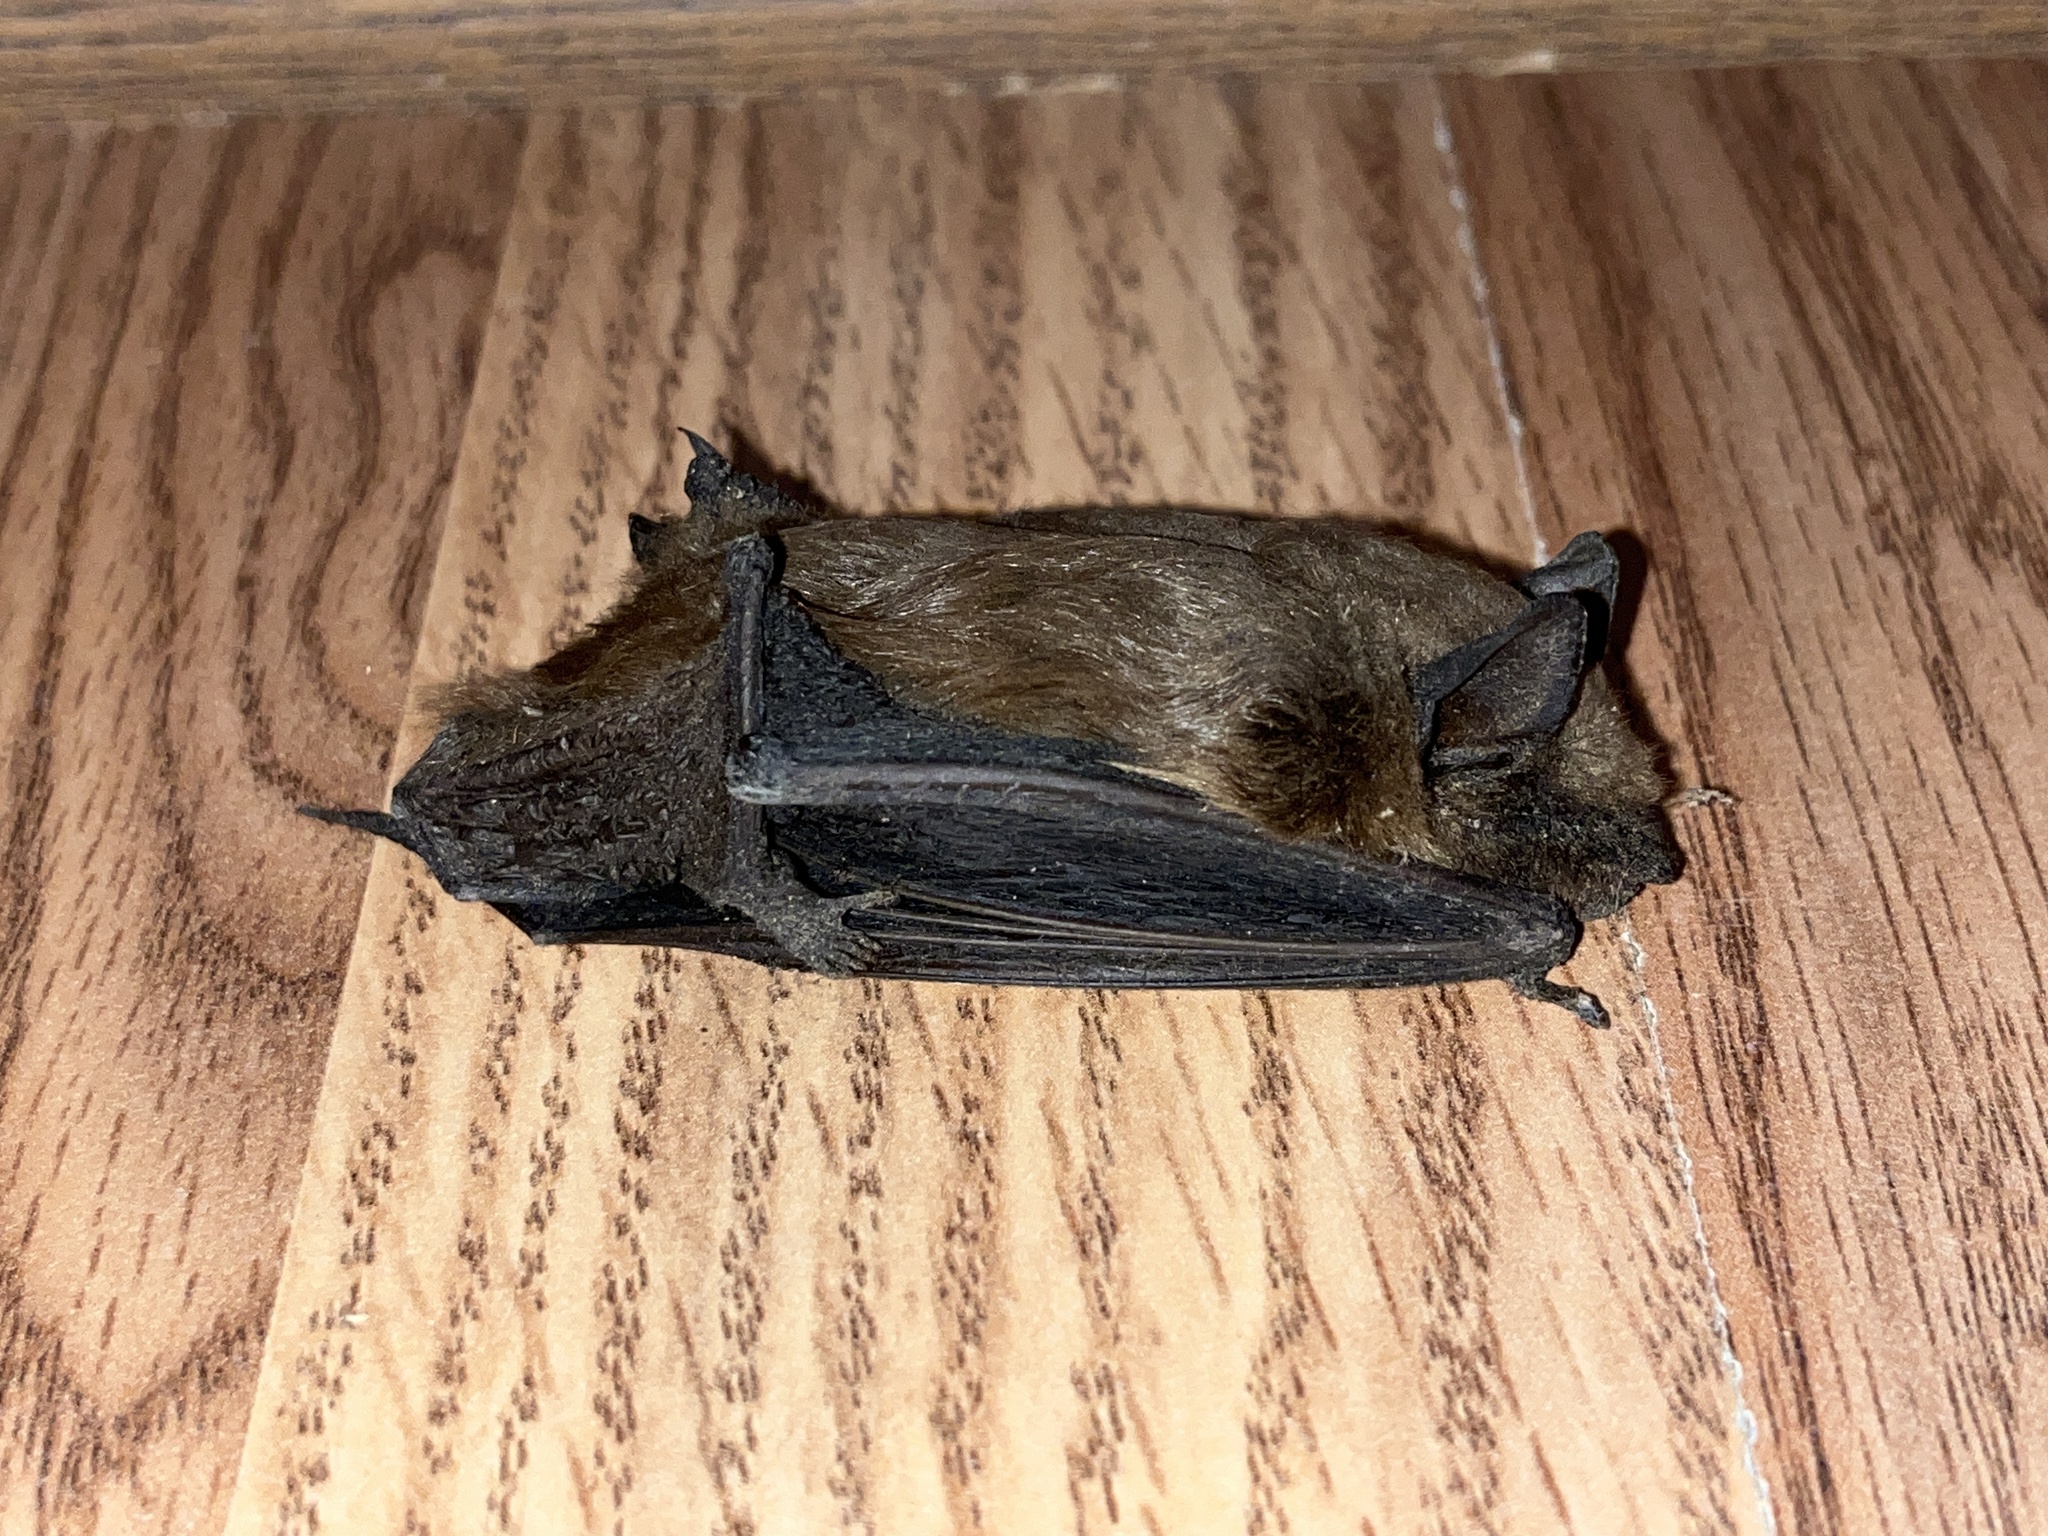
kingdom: Animalia
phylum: Chordata
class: Mammalia
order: Chiroptera
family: Vespertilionidae
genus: Eptesicus
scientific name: Eptesicus fuscus
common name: Big brown bat
